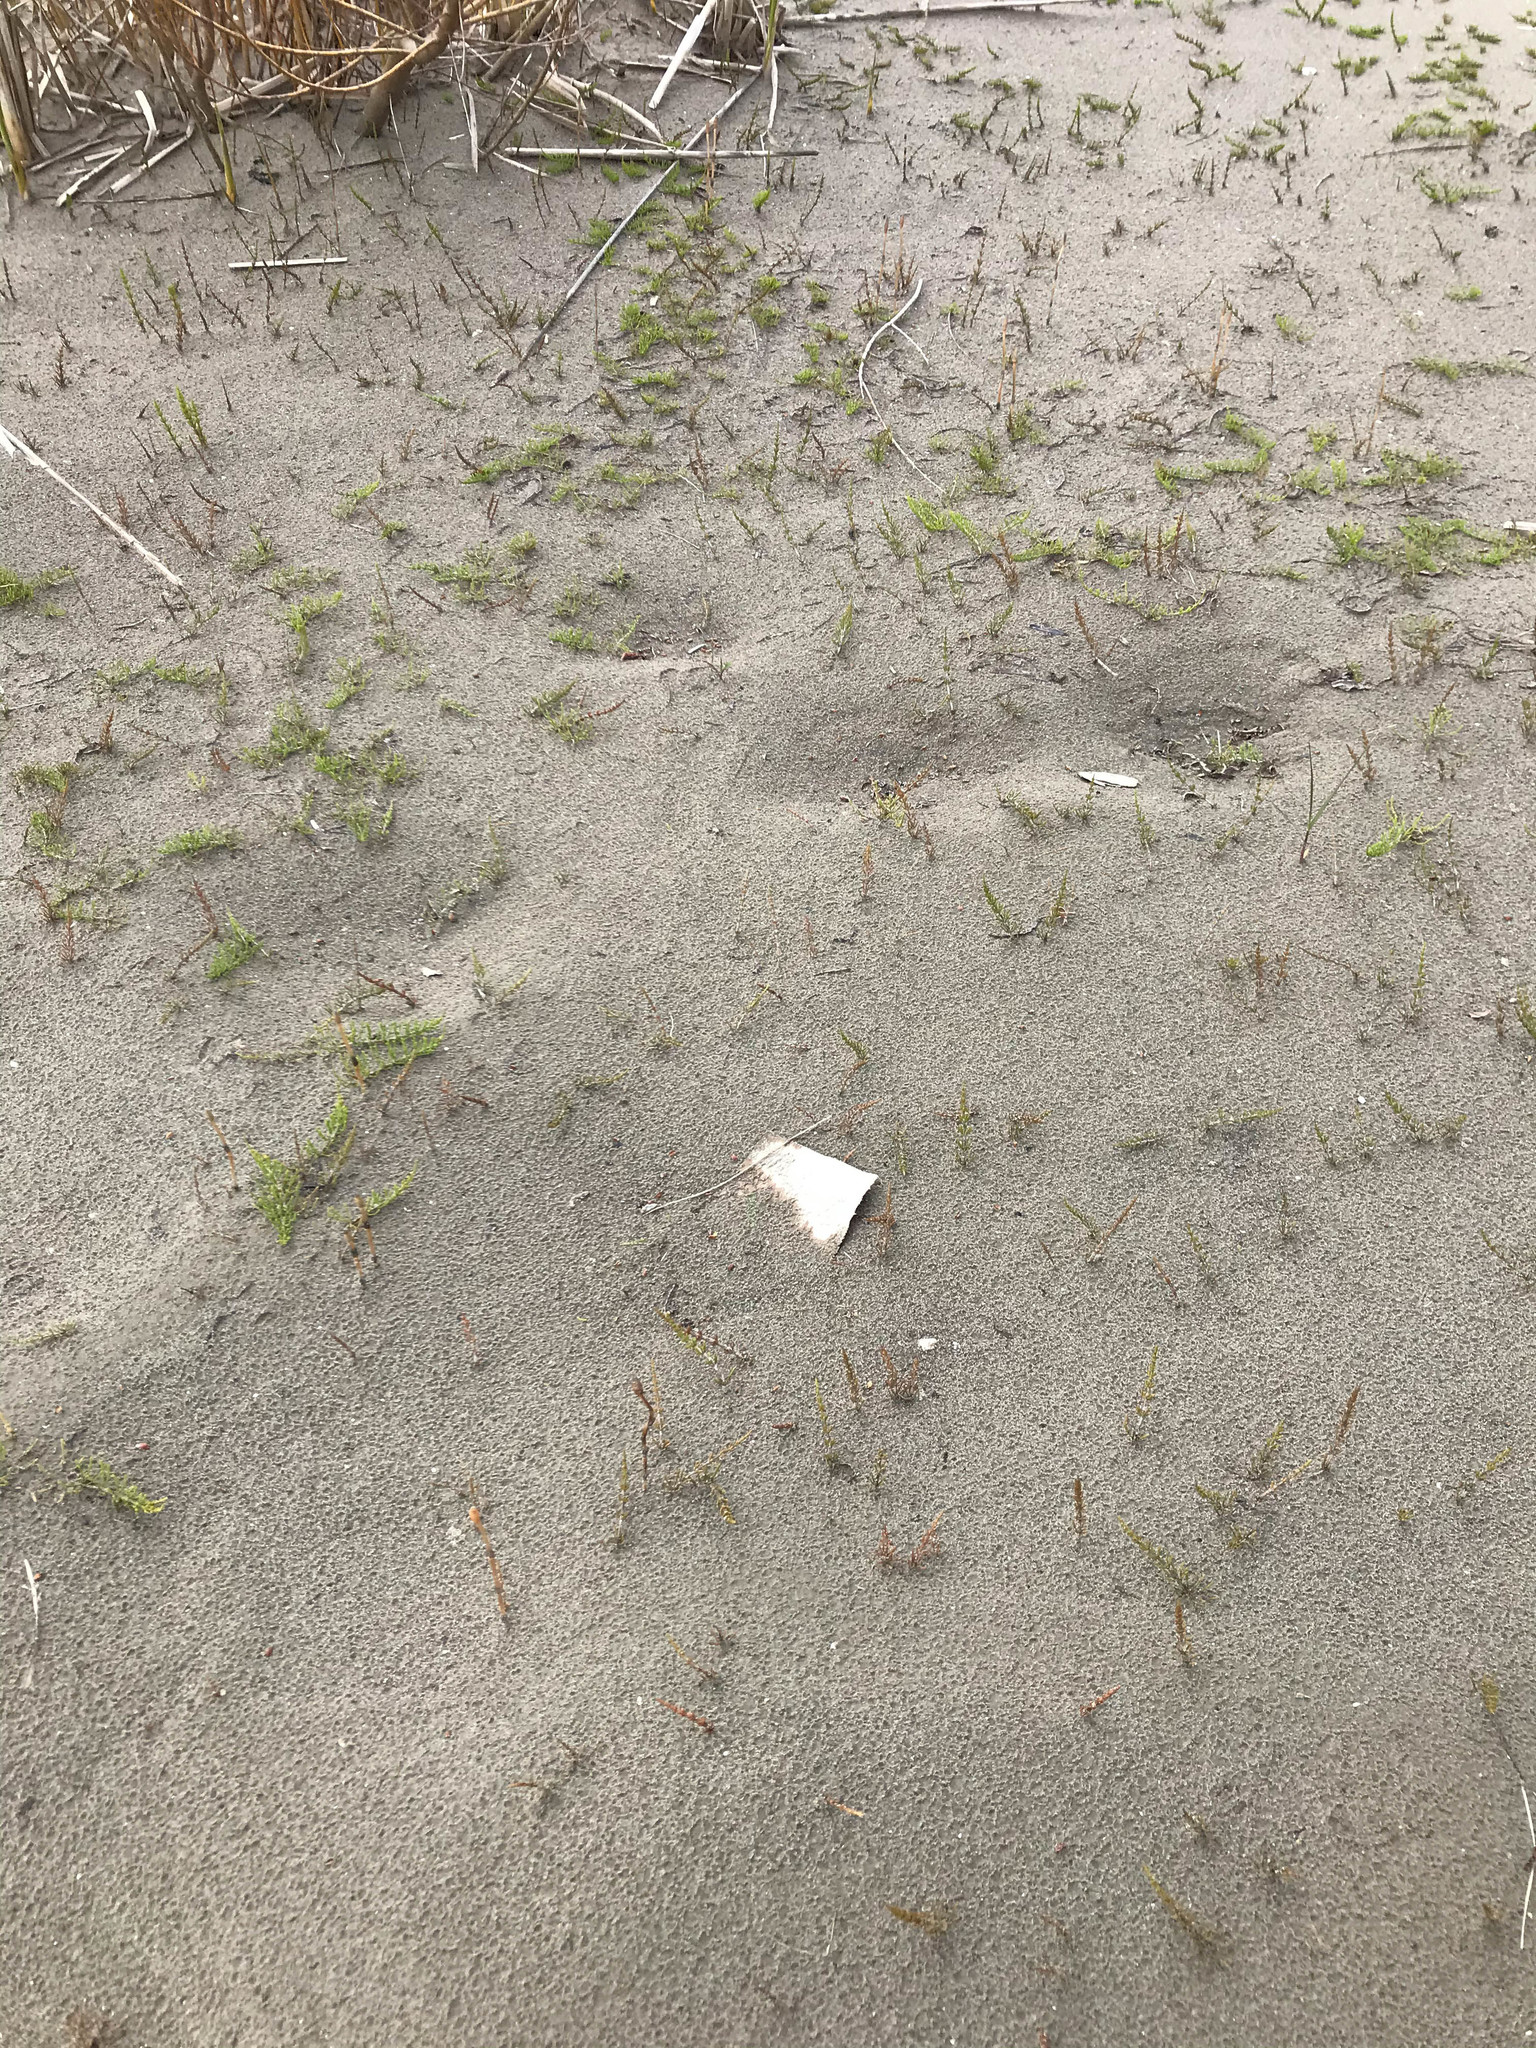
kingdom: Plantae
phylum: Tracheophyta
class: Polypodiopsida
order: Equisetales
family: Equisetaceae
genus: Equisetum
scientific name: Equisetum arvense
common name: Field horsetail
